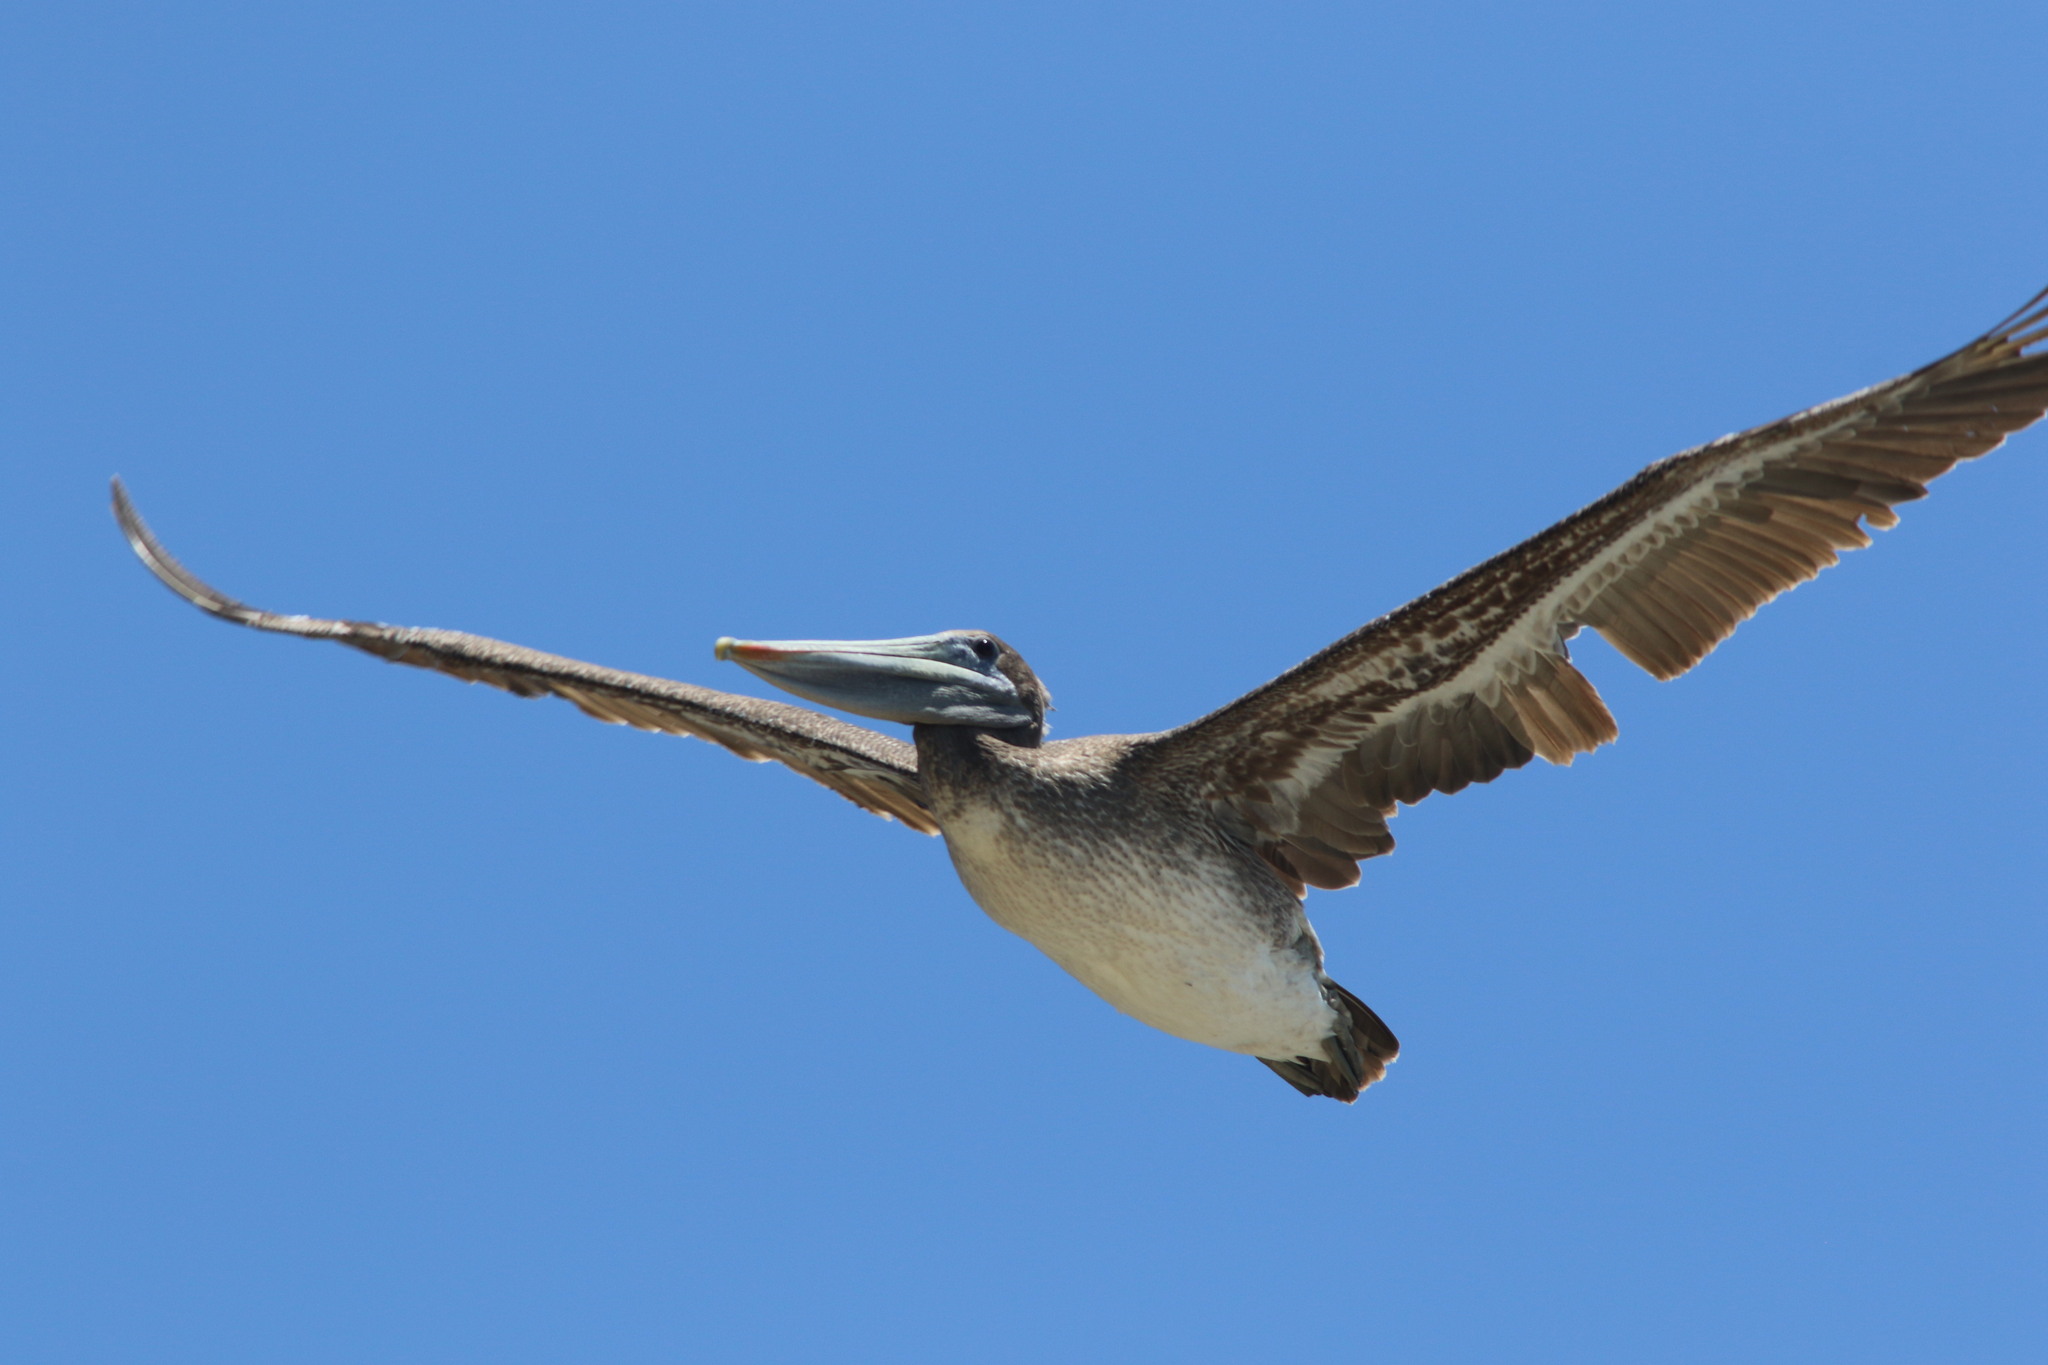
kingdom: Animalia
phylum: Chordata
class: Aves
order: Pelecaniformes
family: Pelecanidae
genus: Pelecanus
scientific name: Pelecanus occidentalis
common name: Brown pelican
